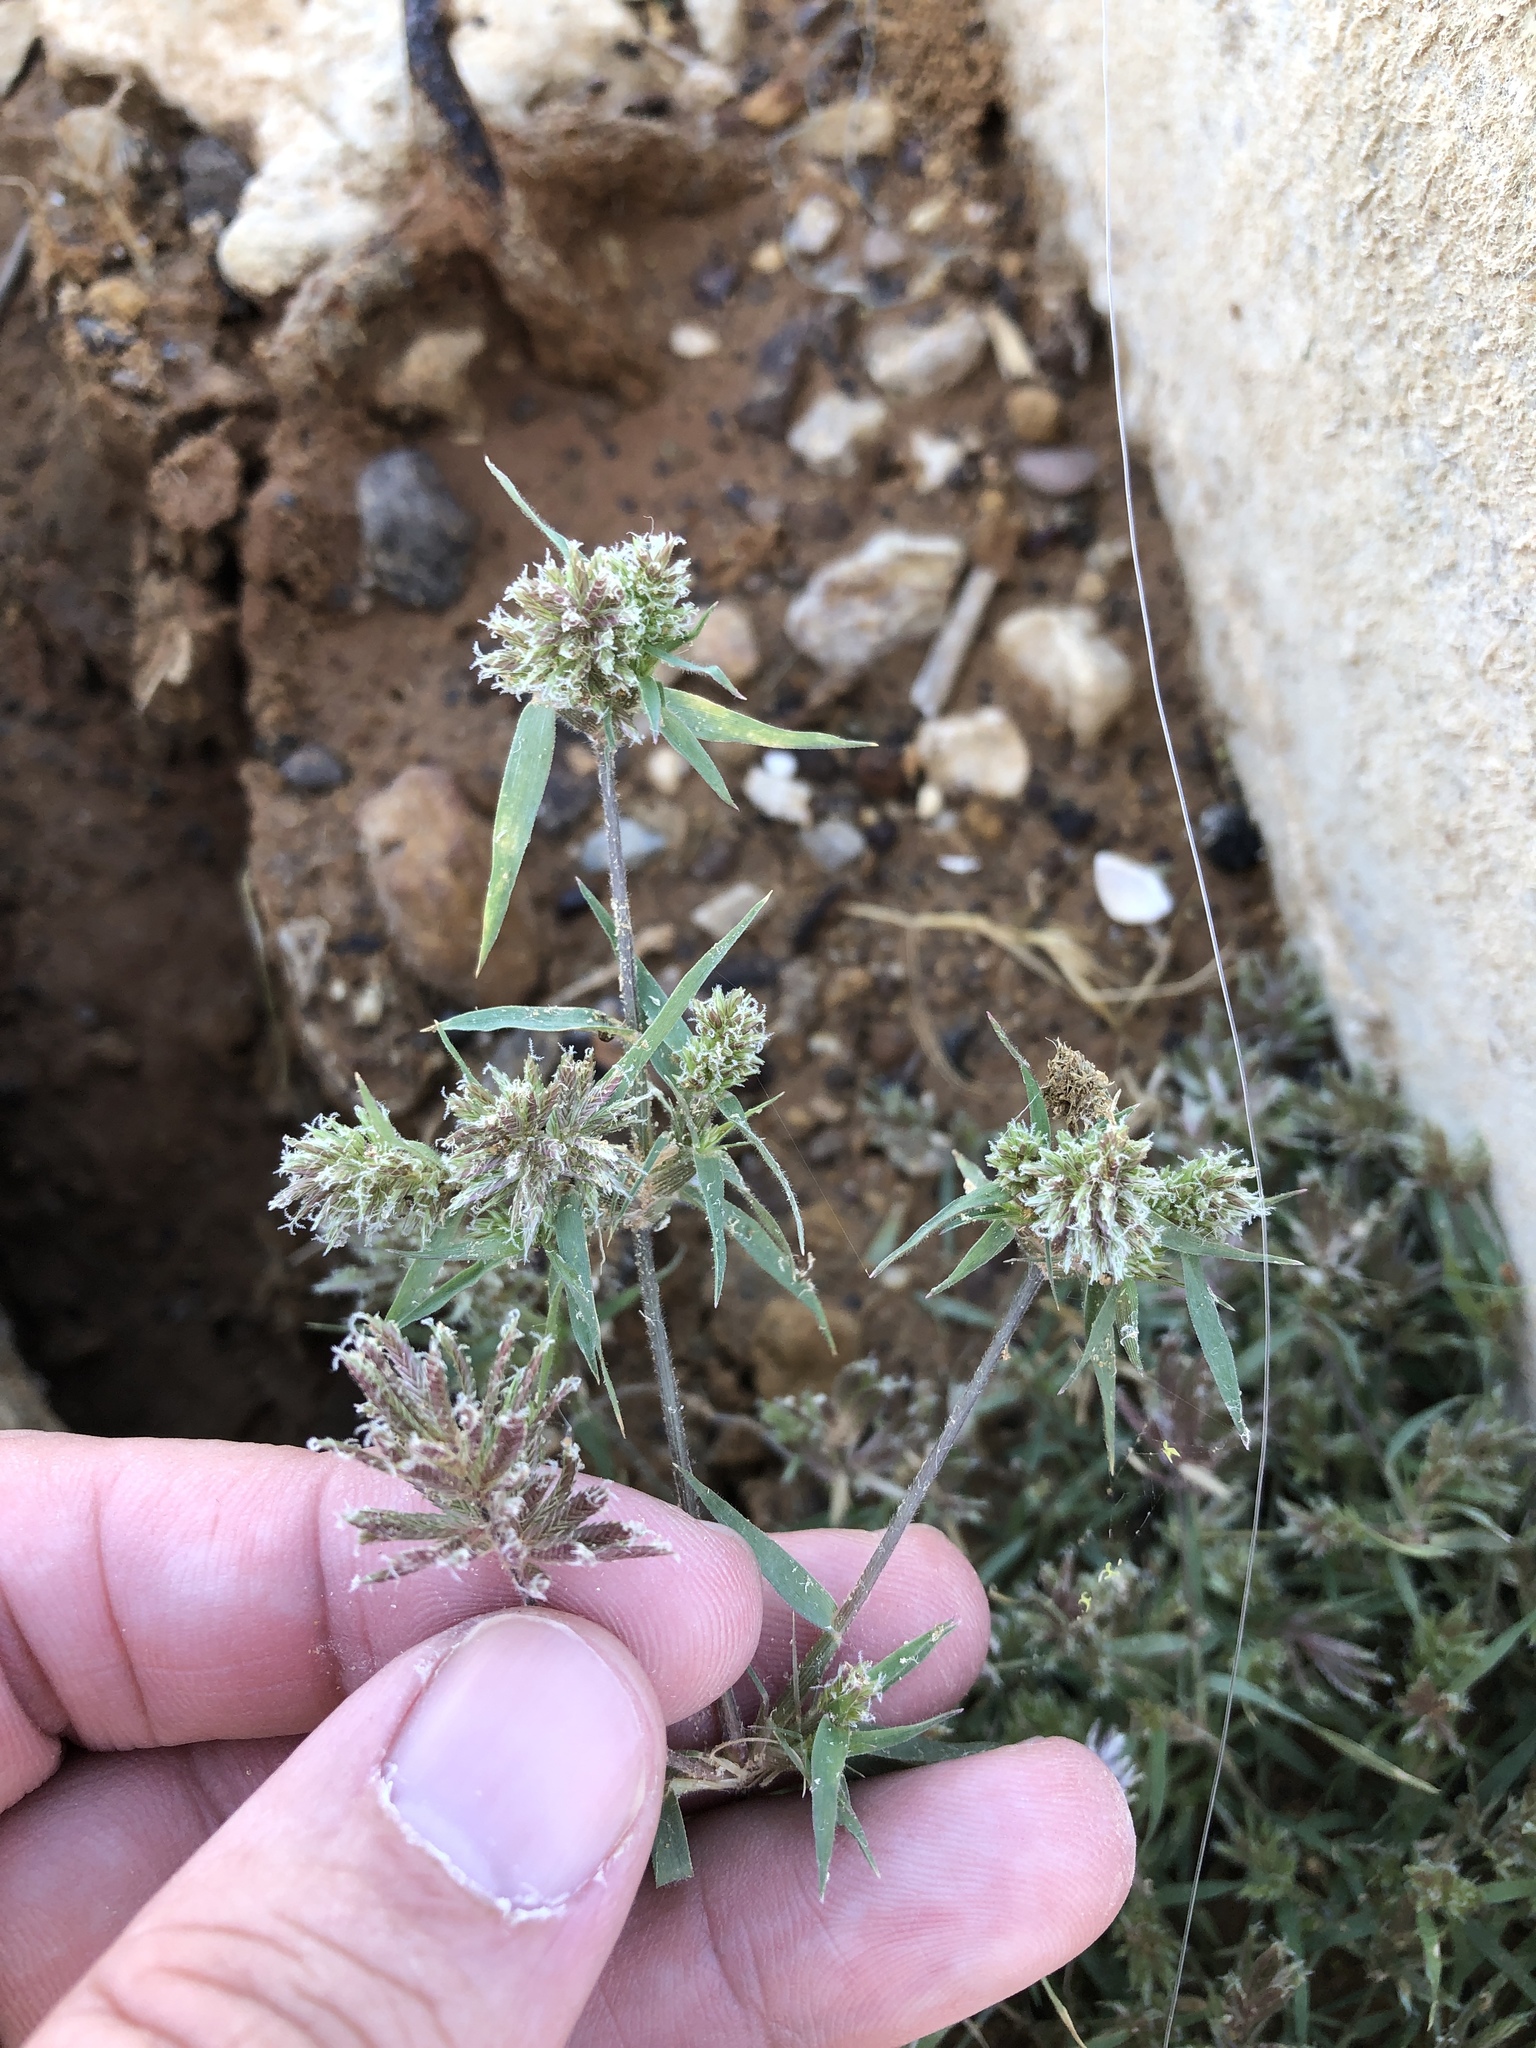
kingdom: Plantae
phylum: Tracheophyta
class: Liliopsida
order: Poales
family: Poaceae
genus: Eragrostis
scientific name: Eragrostis reptans
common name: Creeping love grass
